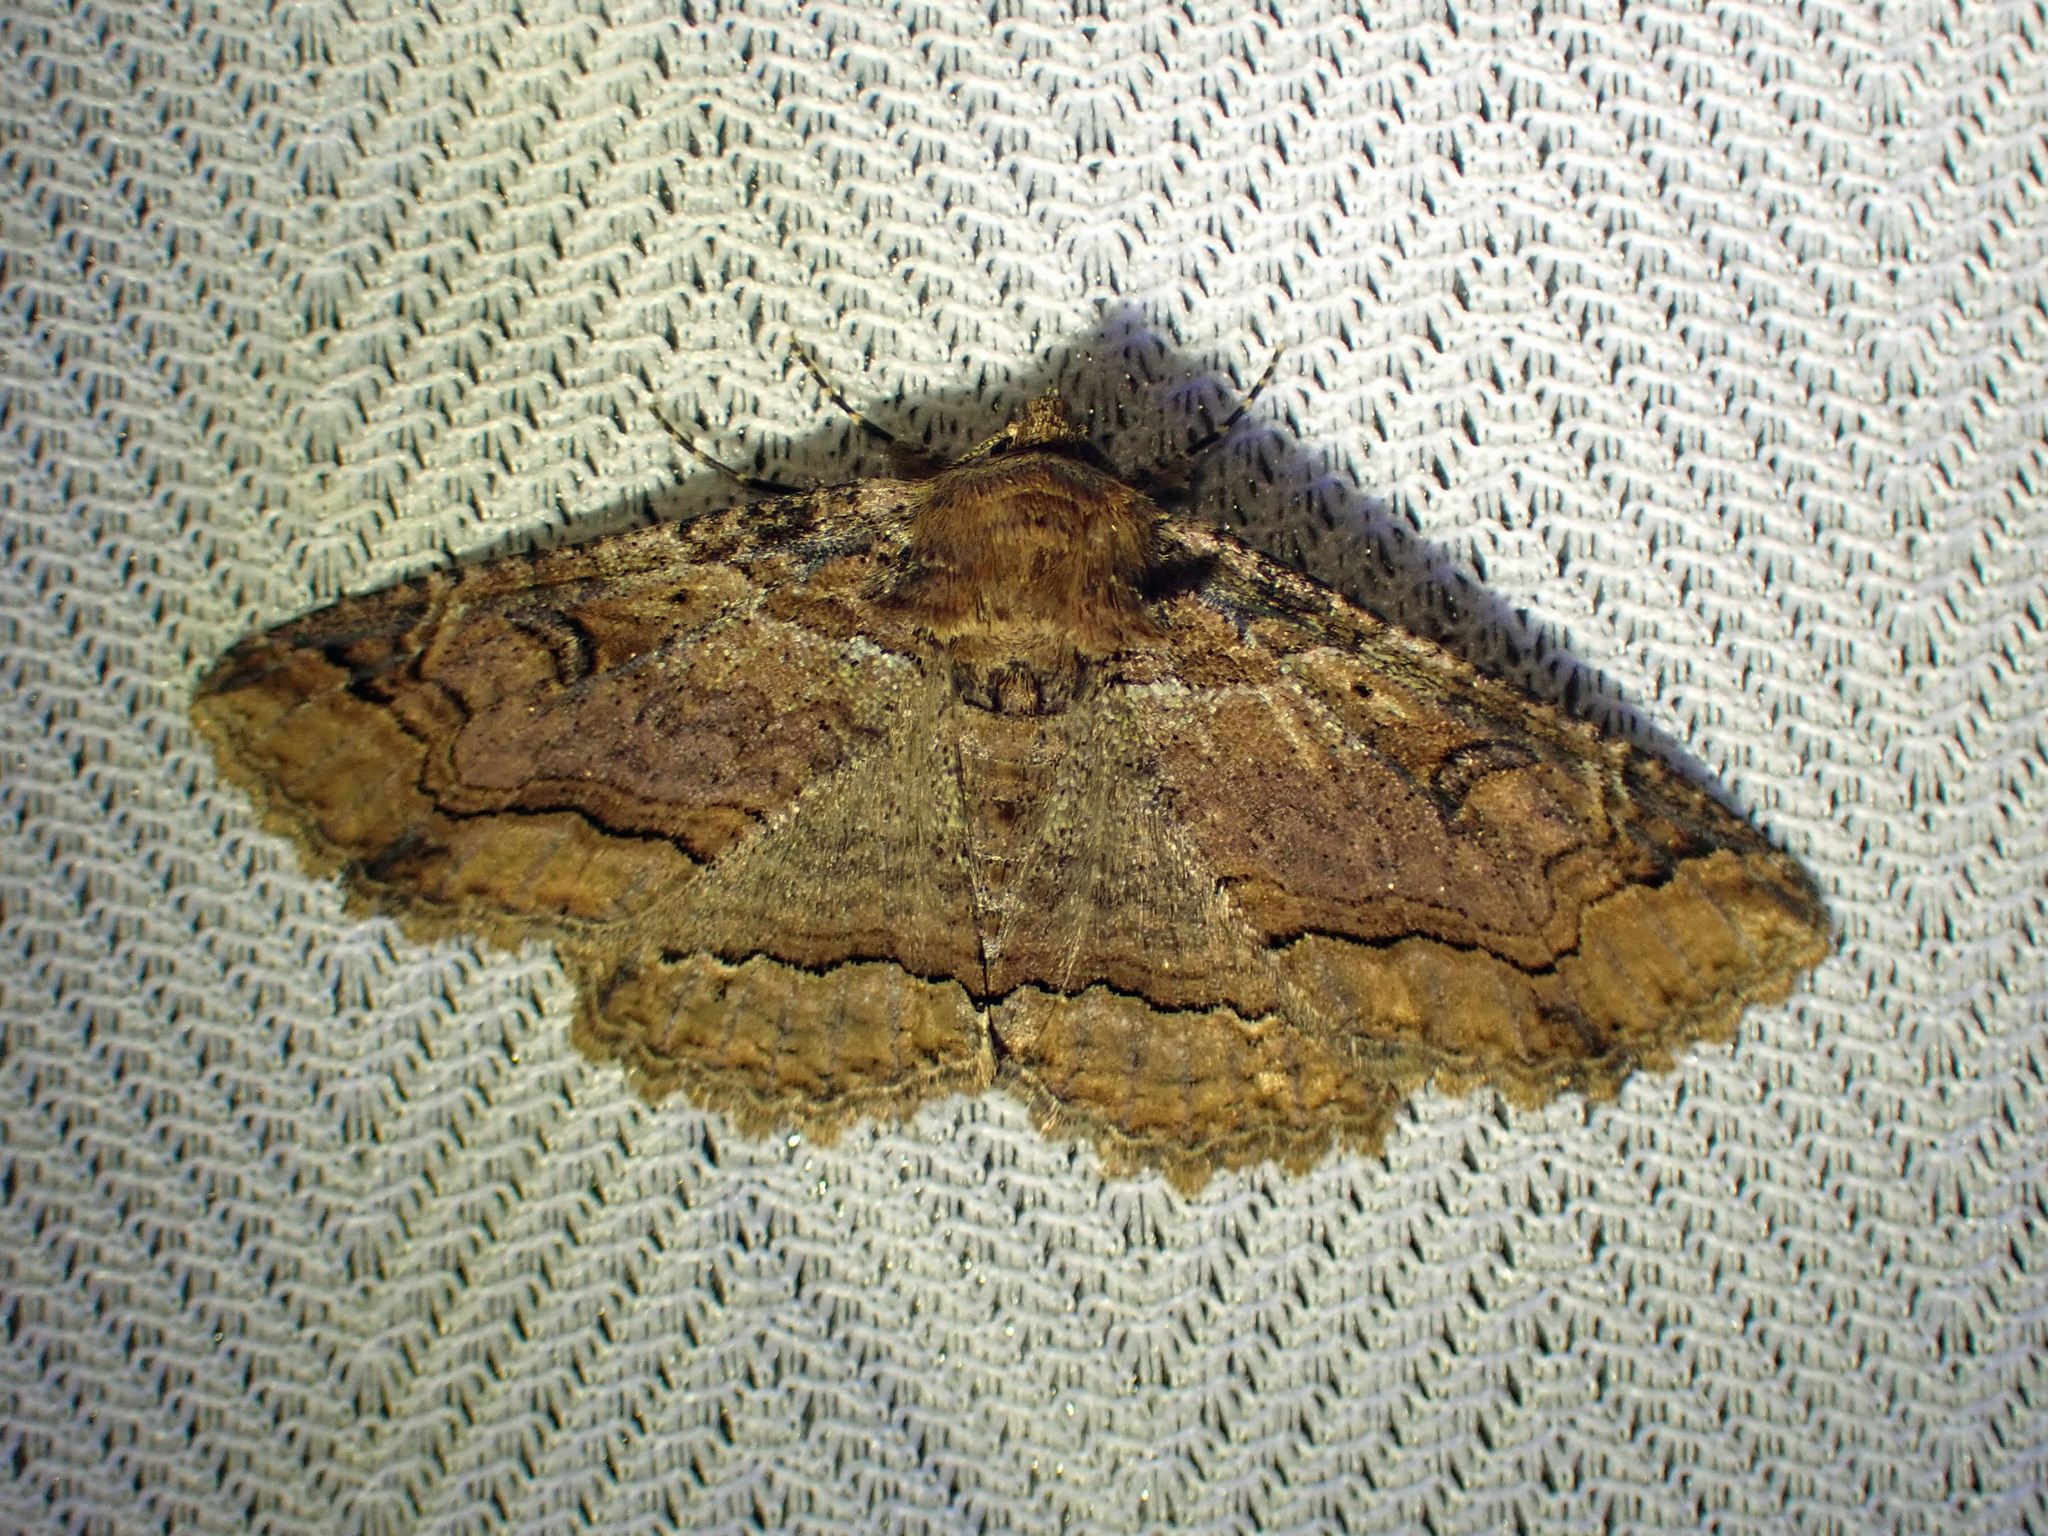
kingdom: Animalia
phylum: Arthropoda
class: Insecta
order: Lepidoptera
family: Erebidae
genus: Zale
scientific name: Zale minerea
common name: Colorful zale moth
